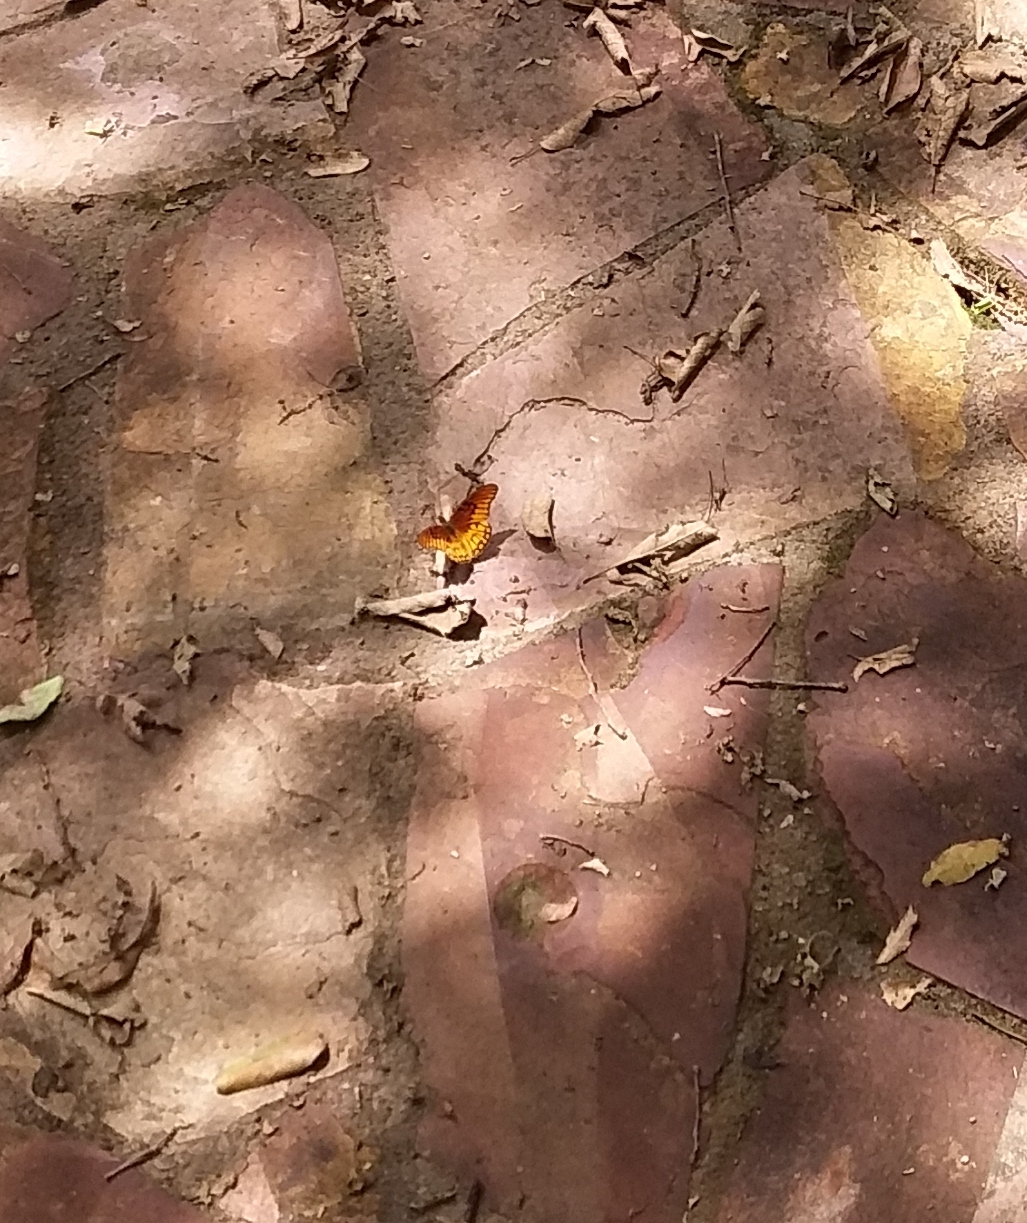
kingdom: Animalia
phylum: Arthropoda
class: Insecta
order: Lepidoptera
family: Nymphalidae
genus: Dione
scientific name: Dione moneta
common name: Mexican silverspot
